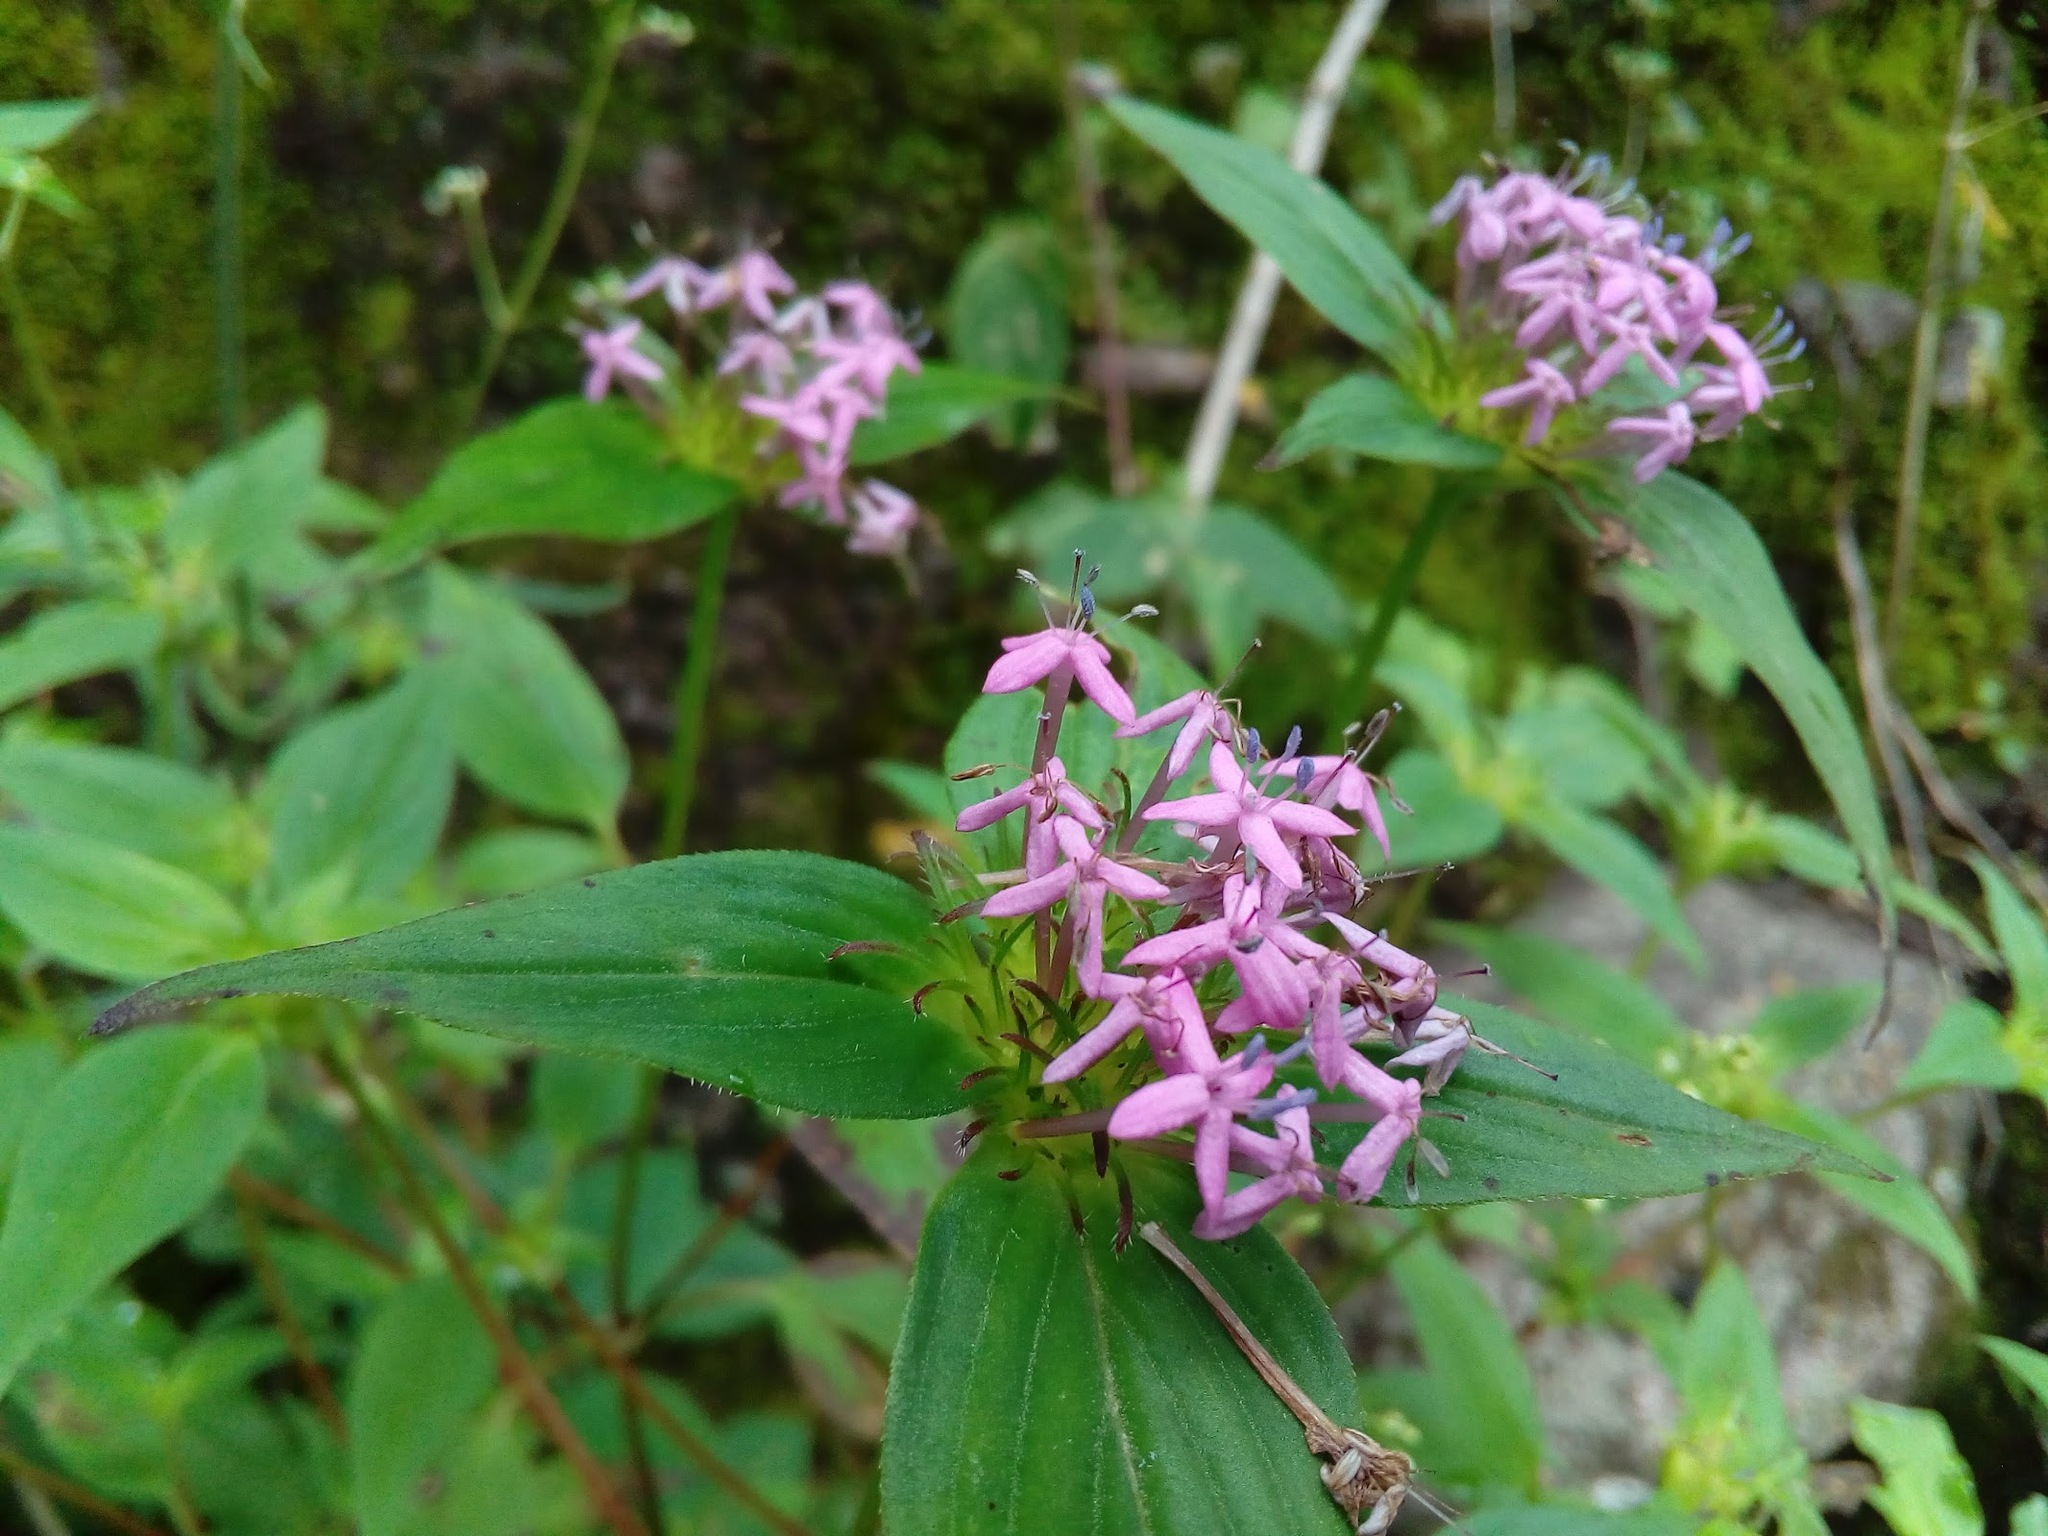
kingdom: Plantae
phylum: Tracheophyta
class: Magnoliopsida
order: Gentianales
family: Rubiaceae
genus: Crusea
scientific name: Crusea hispida
